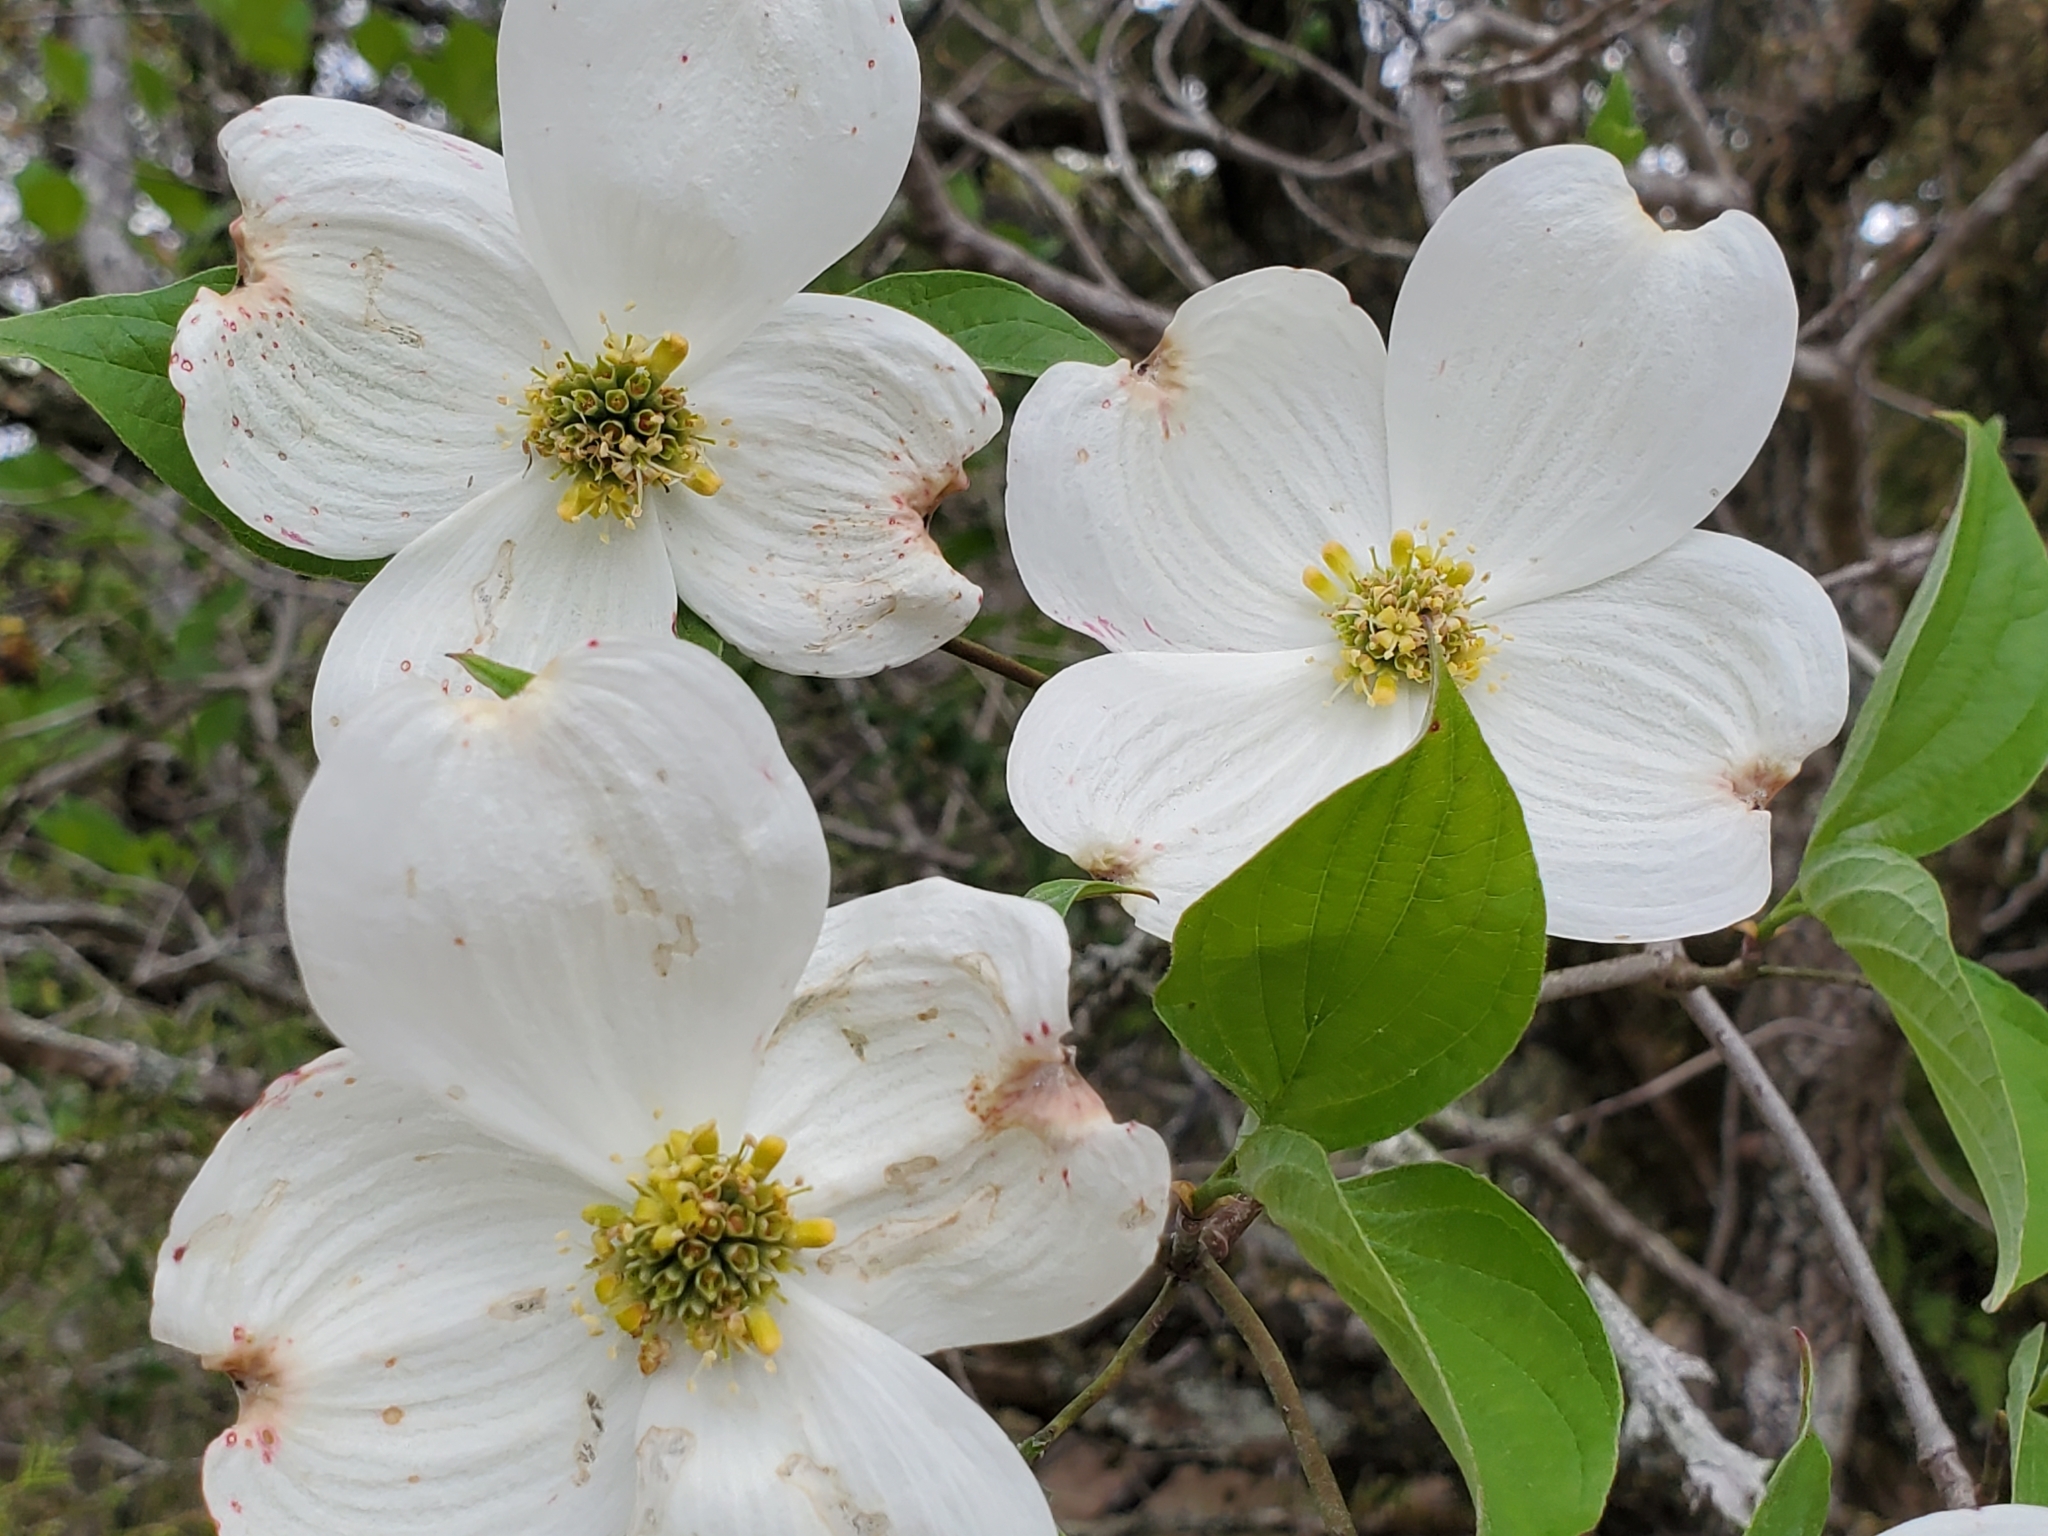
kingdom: Plantae
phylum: Tracheophyta
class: Magnoliopsida
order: Cornales
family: Cornaceae
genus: Cornus
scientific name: Cornus florida
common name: Flowering dogwood
